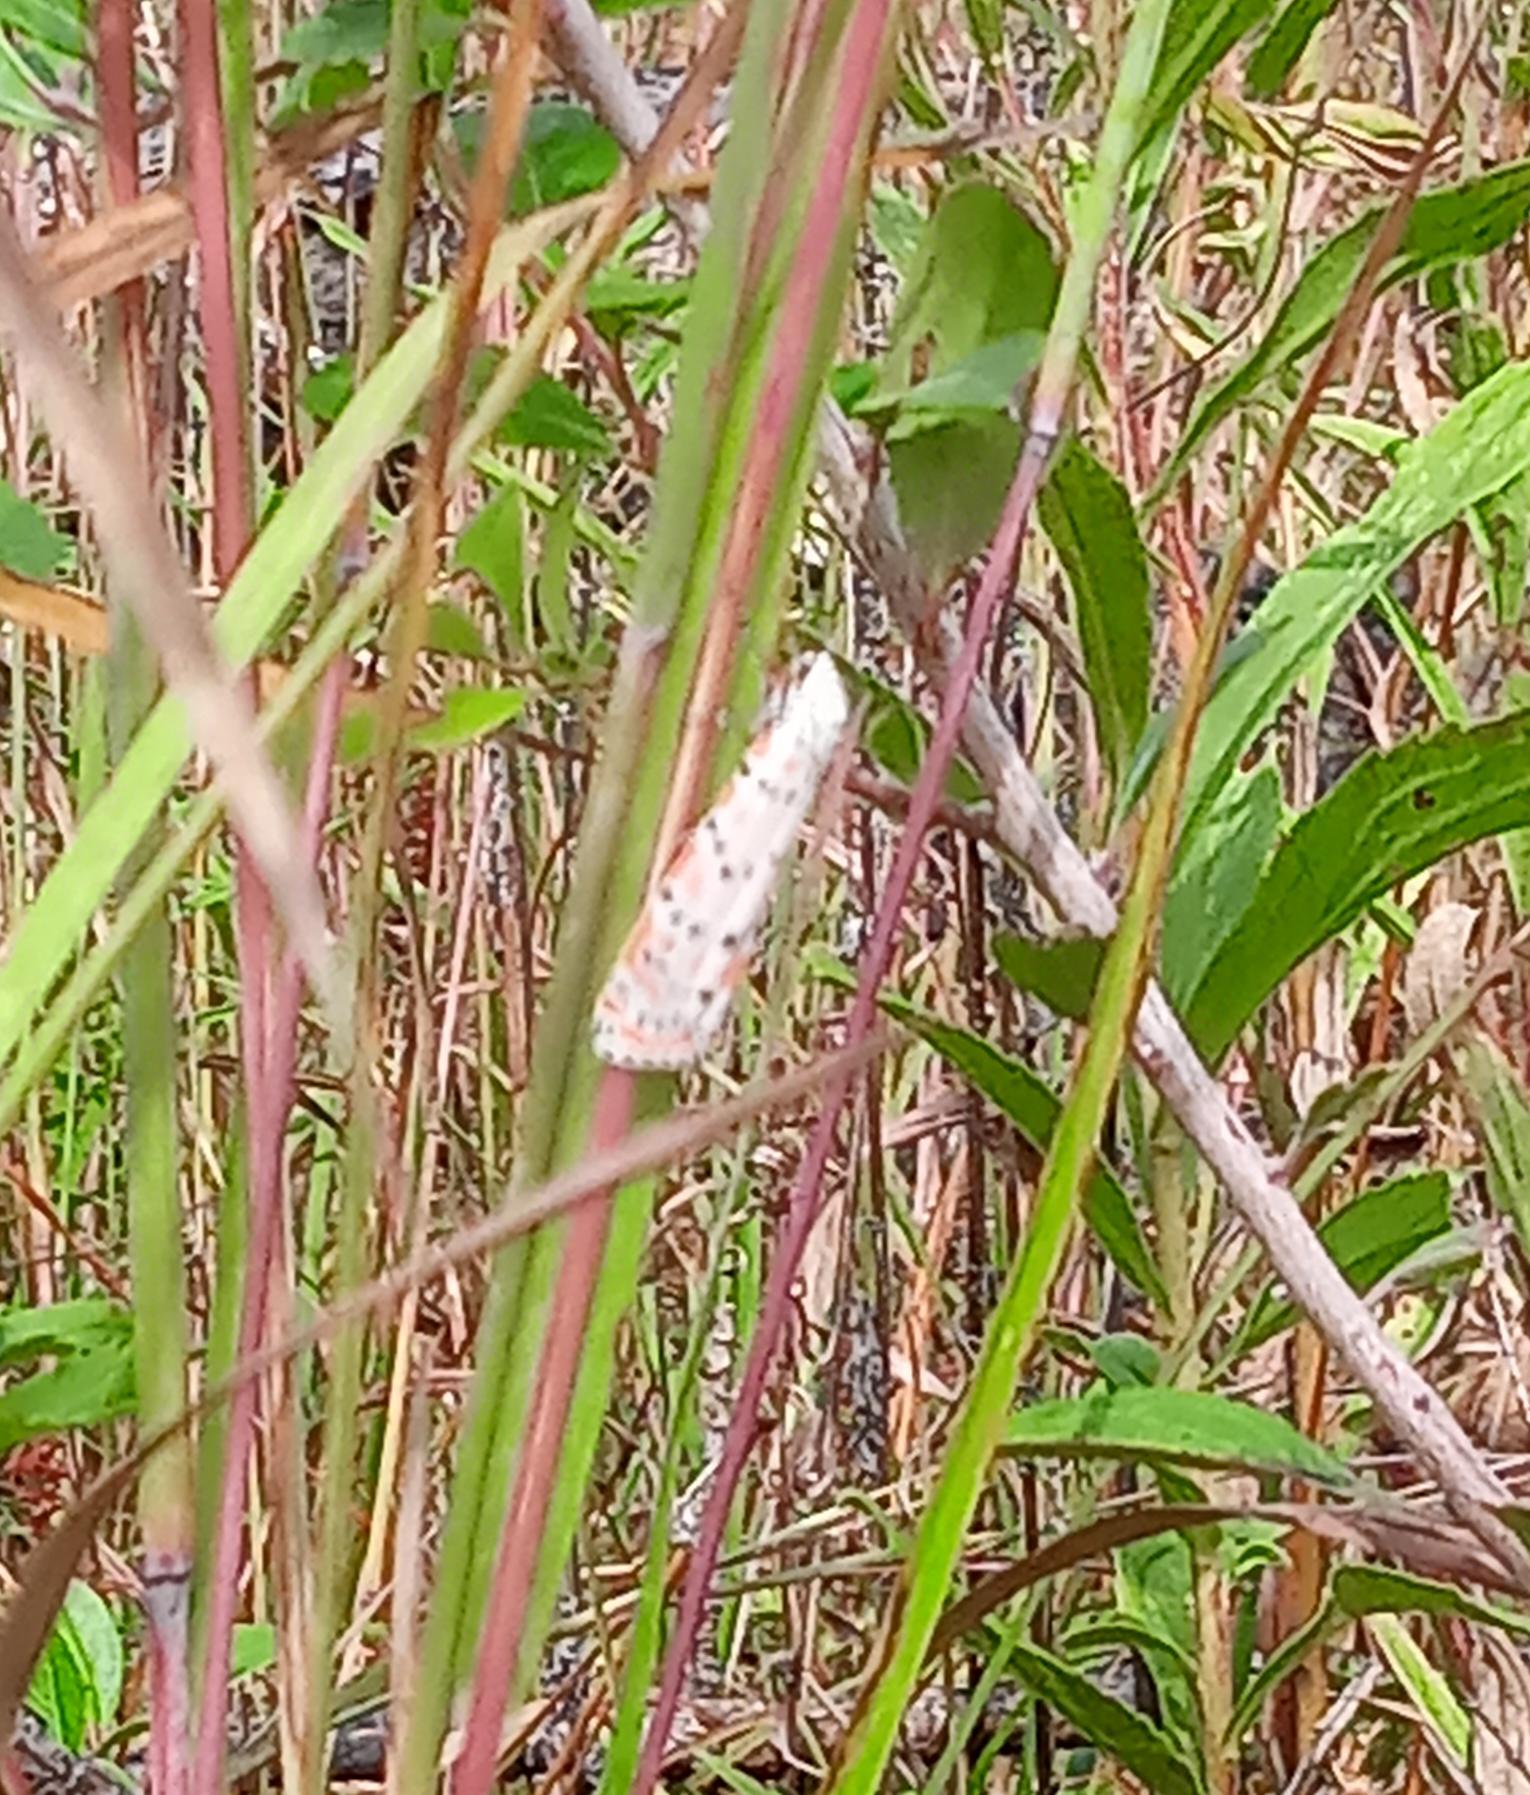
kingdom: Animalia
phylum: Arthropoda
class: Insecta
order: Lepidoptera
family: Erebidae
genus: Utetheisa
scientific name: Utetheisa ornatrix
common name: Beautiful utetheisa
